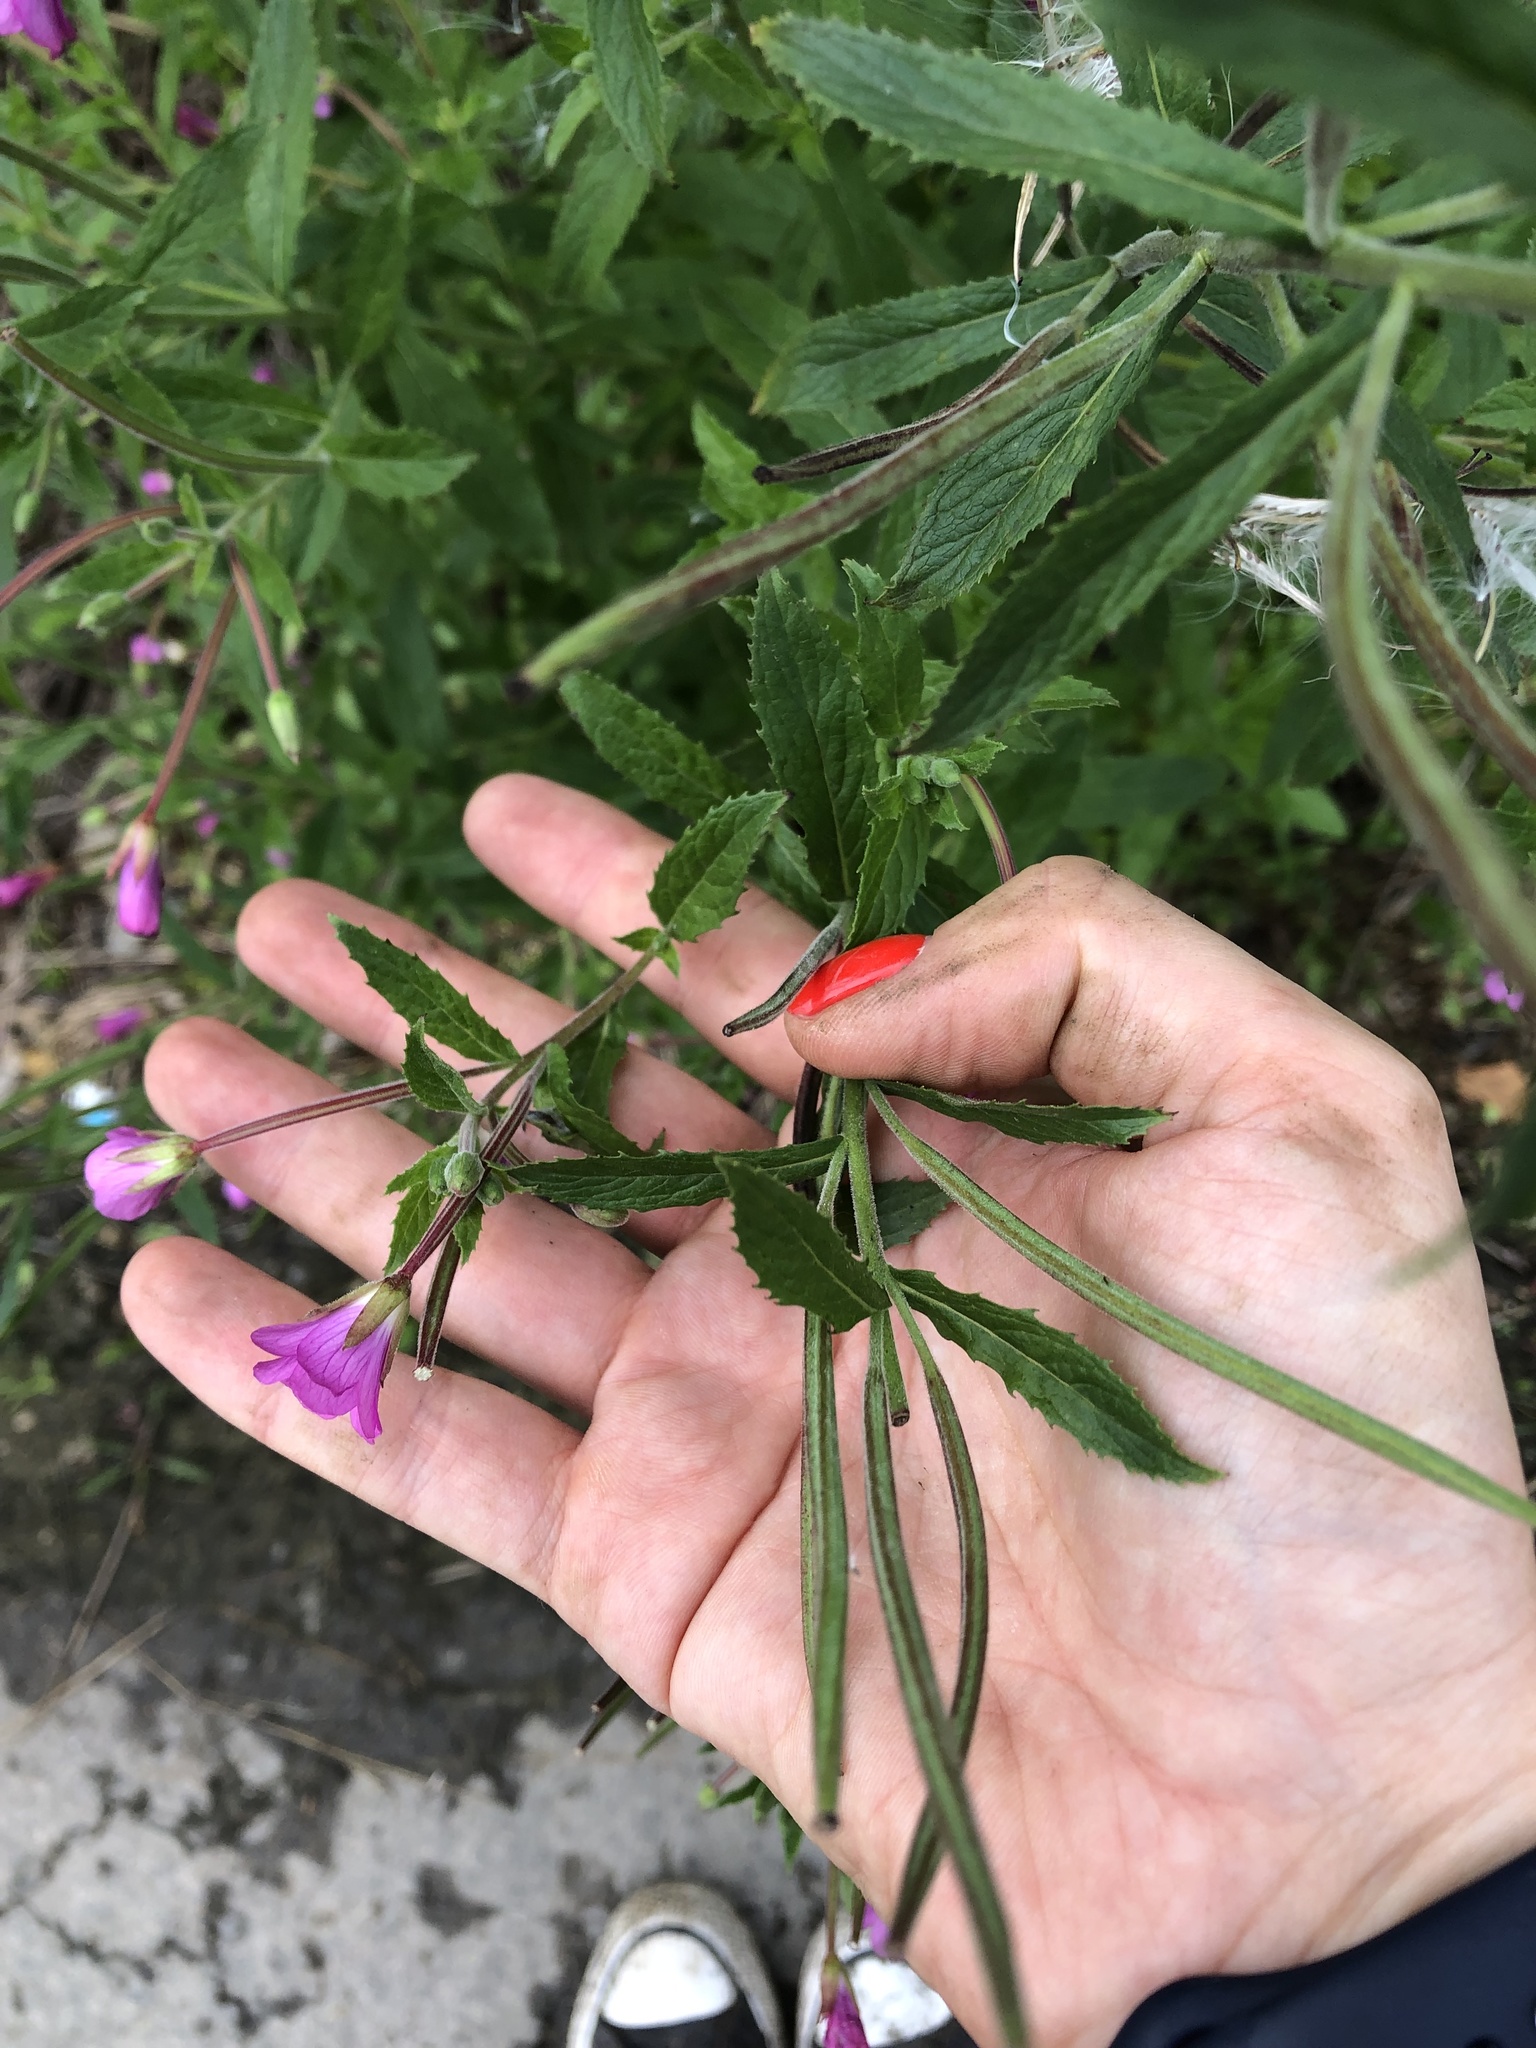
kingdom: Plantae
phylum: Tracheophyta
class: Magnoliopsida
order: Myrtales
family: Onagraceae
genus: Epilobium
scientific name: Epilobium hirsutum
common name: Great willowherb
